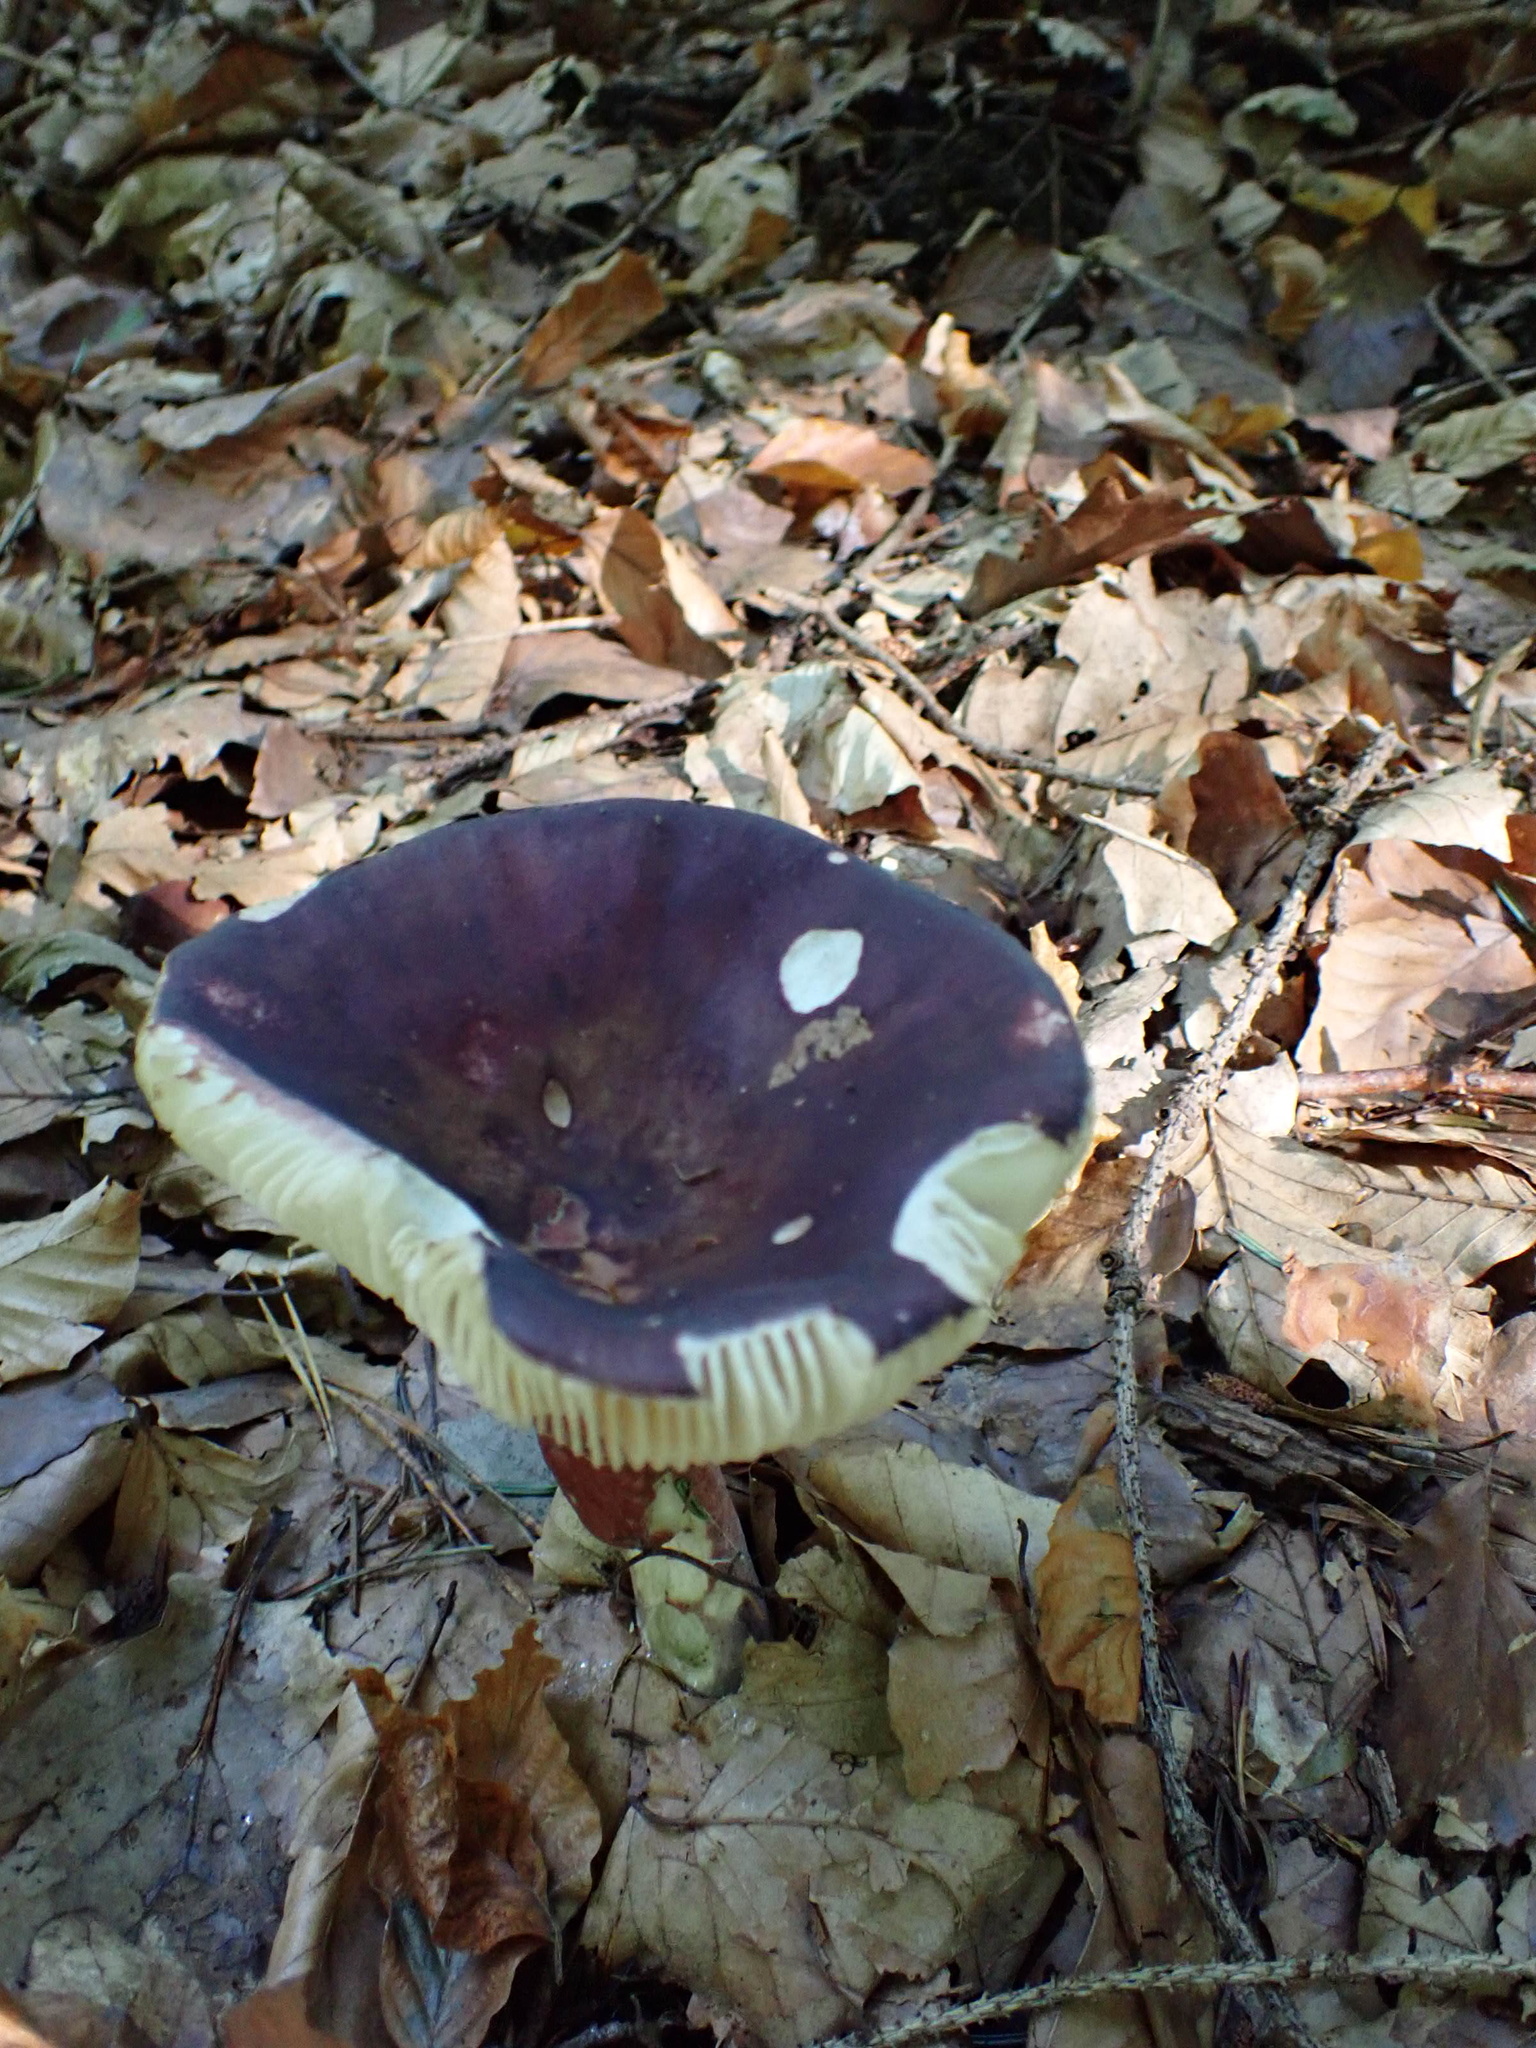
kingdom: Fungi
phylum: Basidiomycota
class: Agaricomycetes
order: Russulales
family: Russulaceae
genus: Russula
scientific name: Russula
